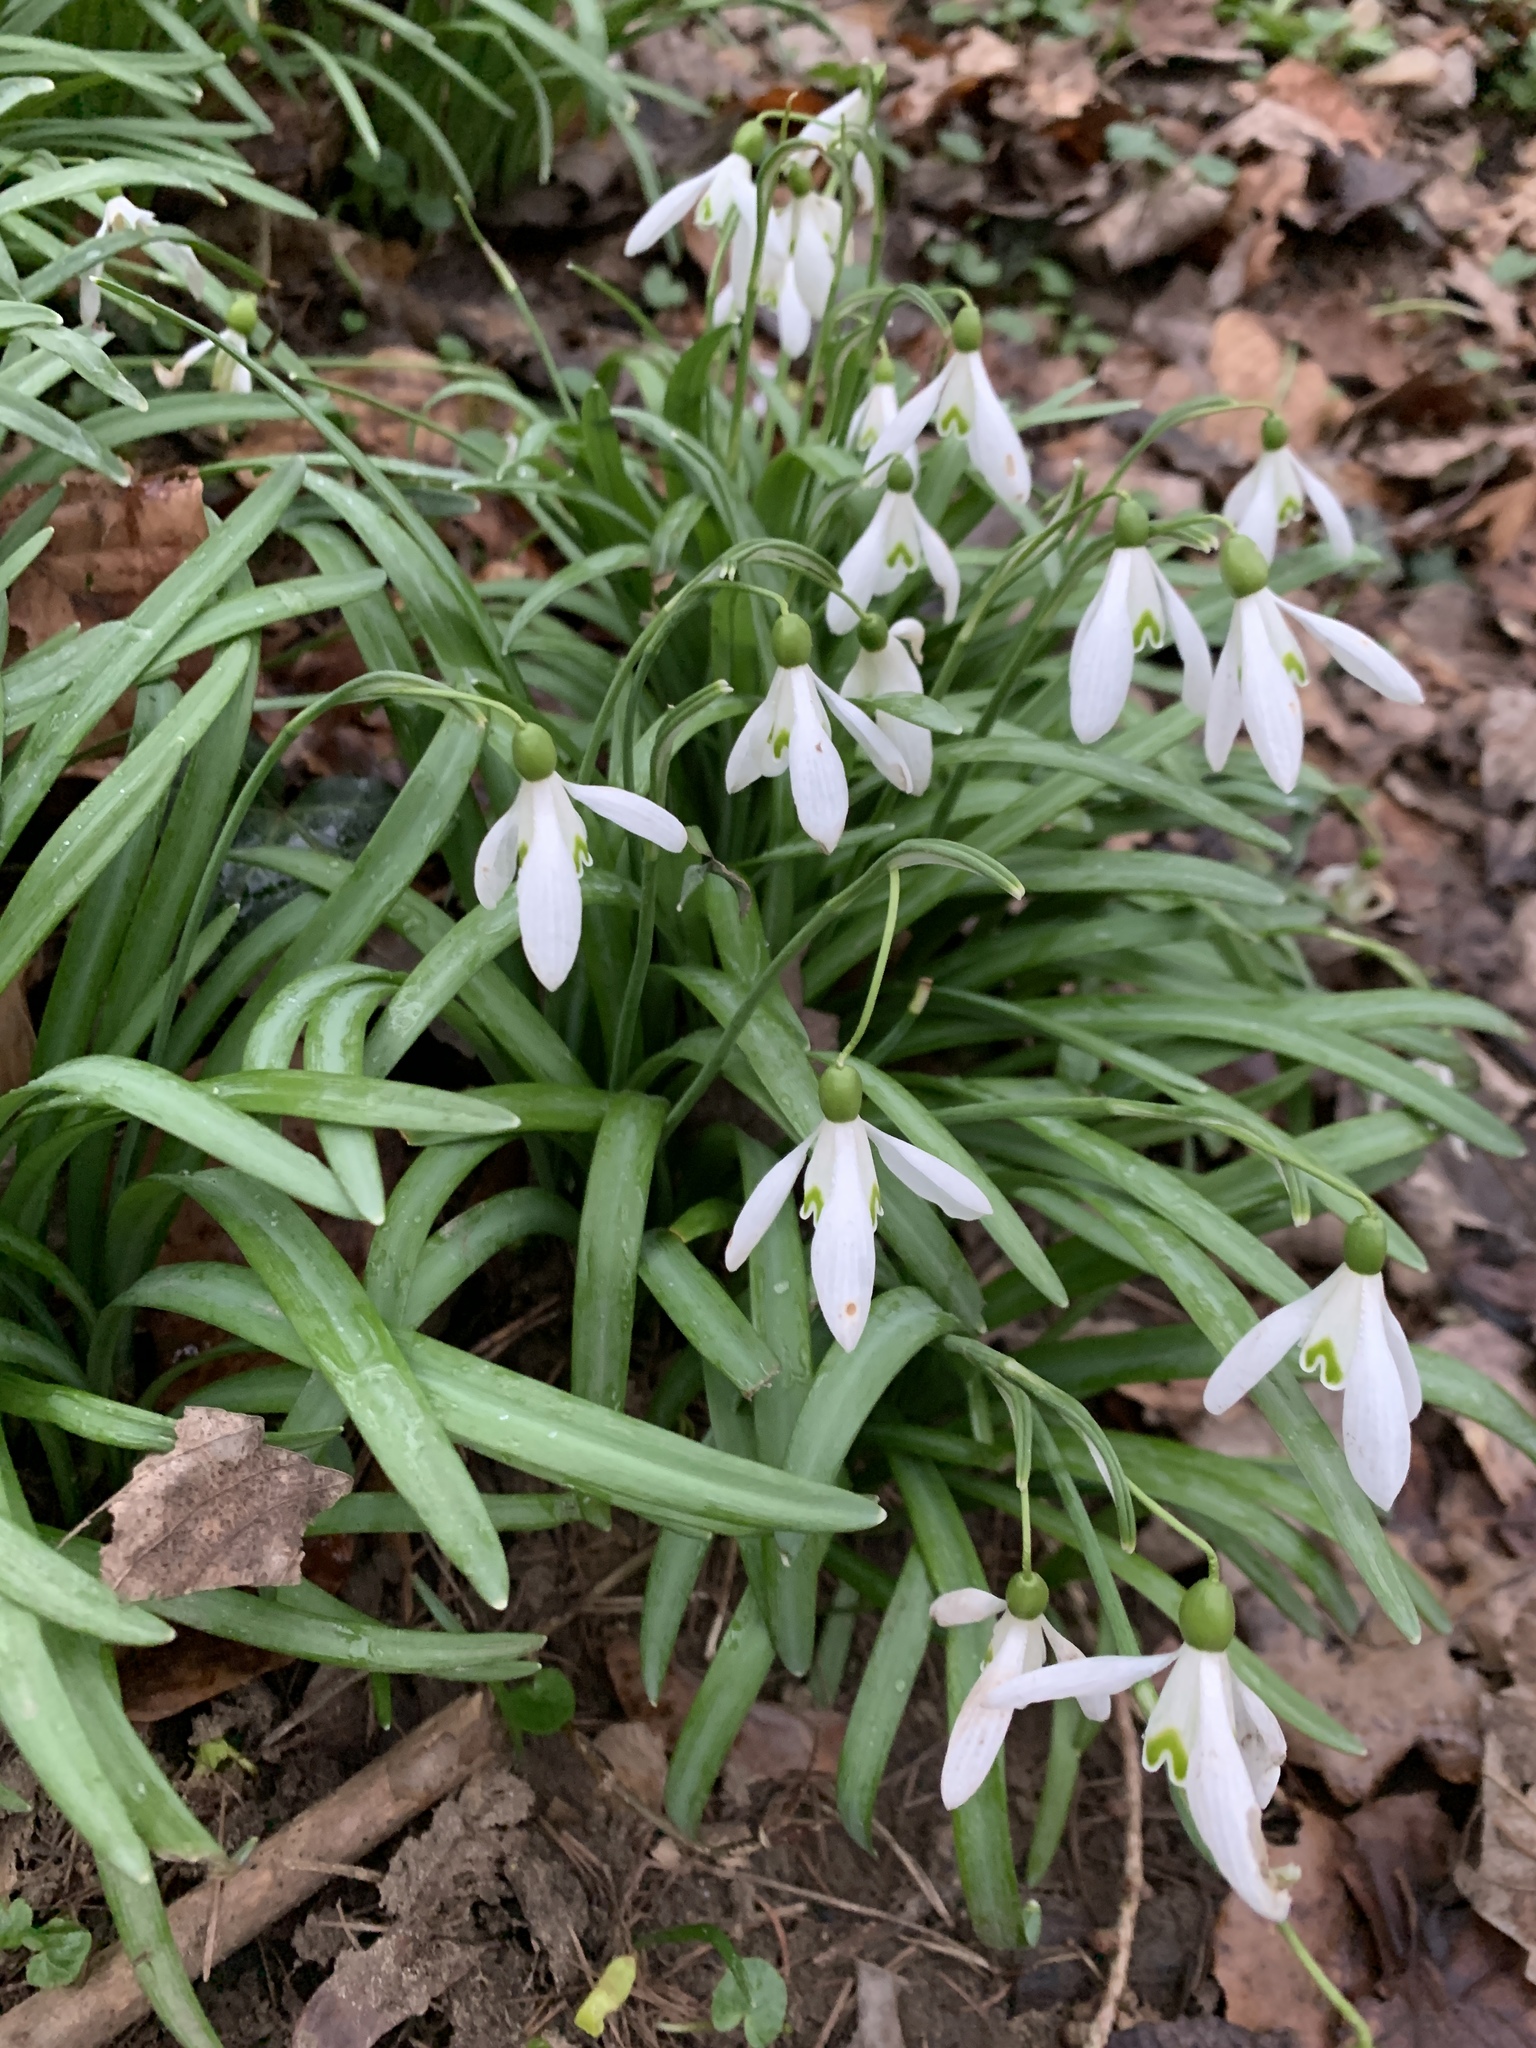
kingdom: Plantae
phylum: Tracheophyta
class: Liliopsida
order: Asparagales
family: Amaryllidaceae
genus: Galanthus
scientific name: Galanthus nivalis
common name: Snowdrop
